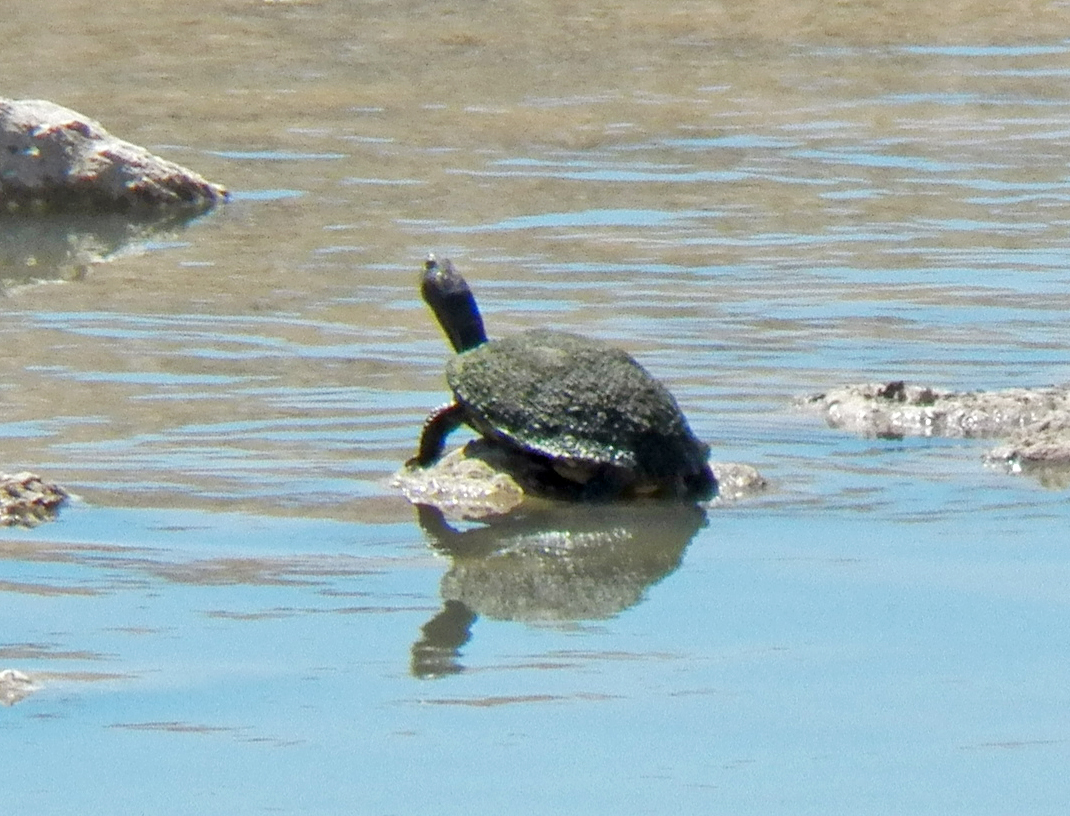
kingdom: Animalia
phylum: Chordata
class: Testudines
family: Emydidae
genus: Trachemys
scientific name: Trachemys scripta
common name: Slider
